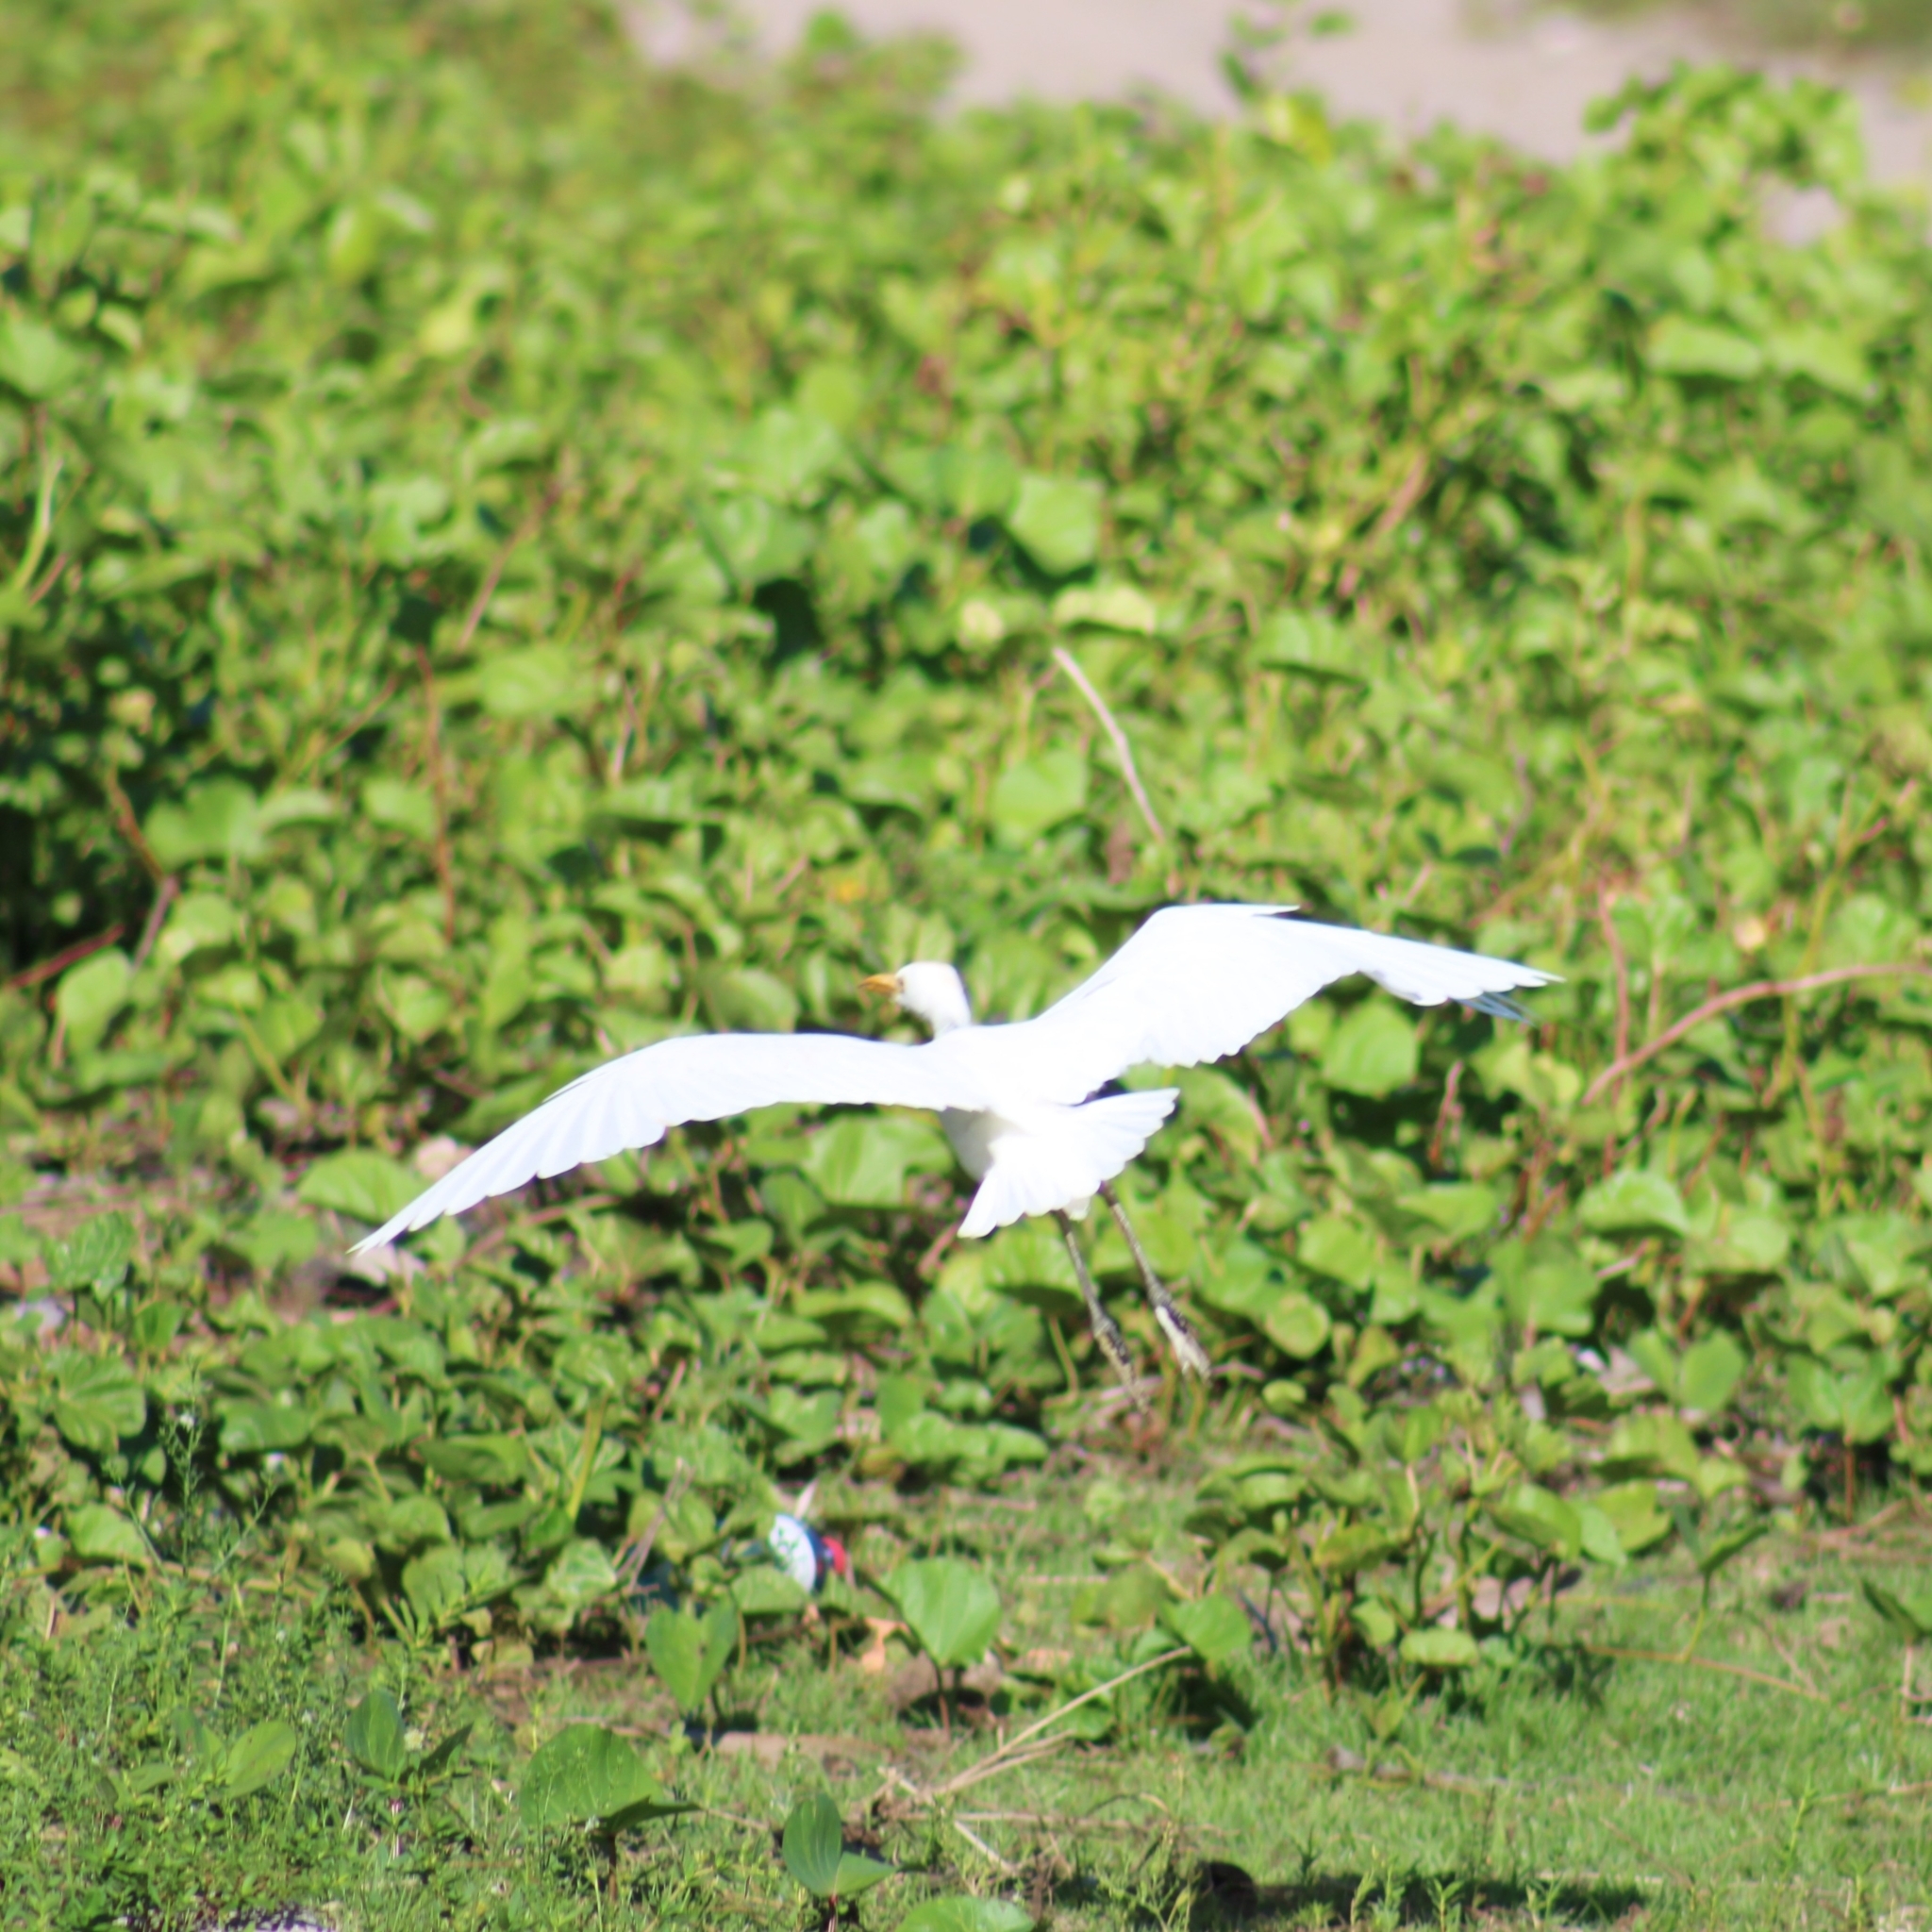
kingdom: Animalia
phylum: Chordata
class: Aves
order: Pelecaniformes
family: Ardeidae
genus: Bubulcus
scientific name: Bubulcus ibis
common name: Cattle egret
